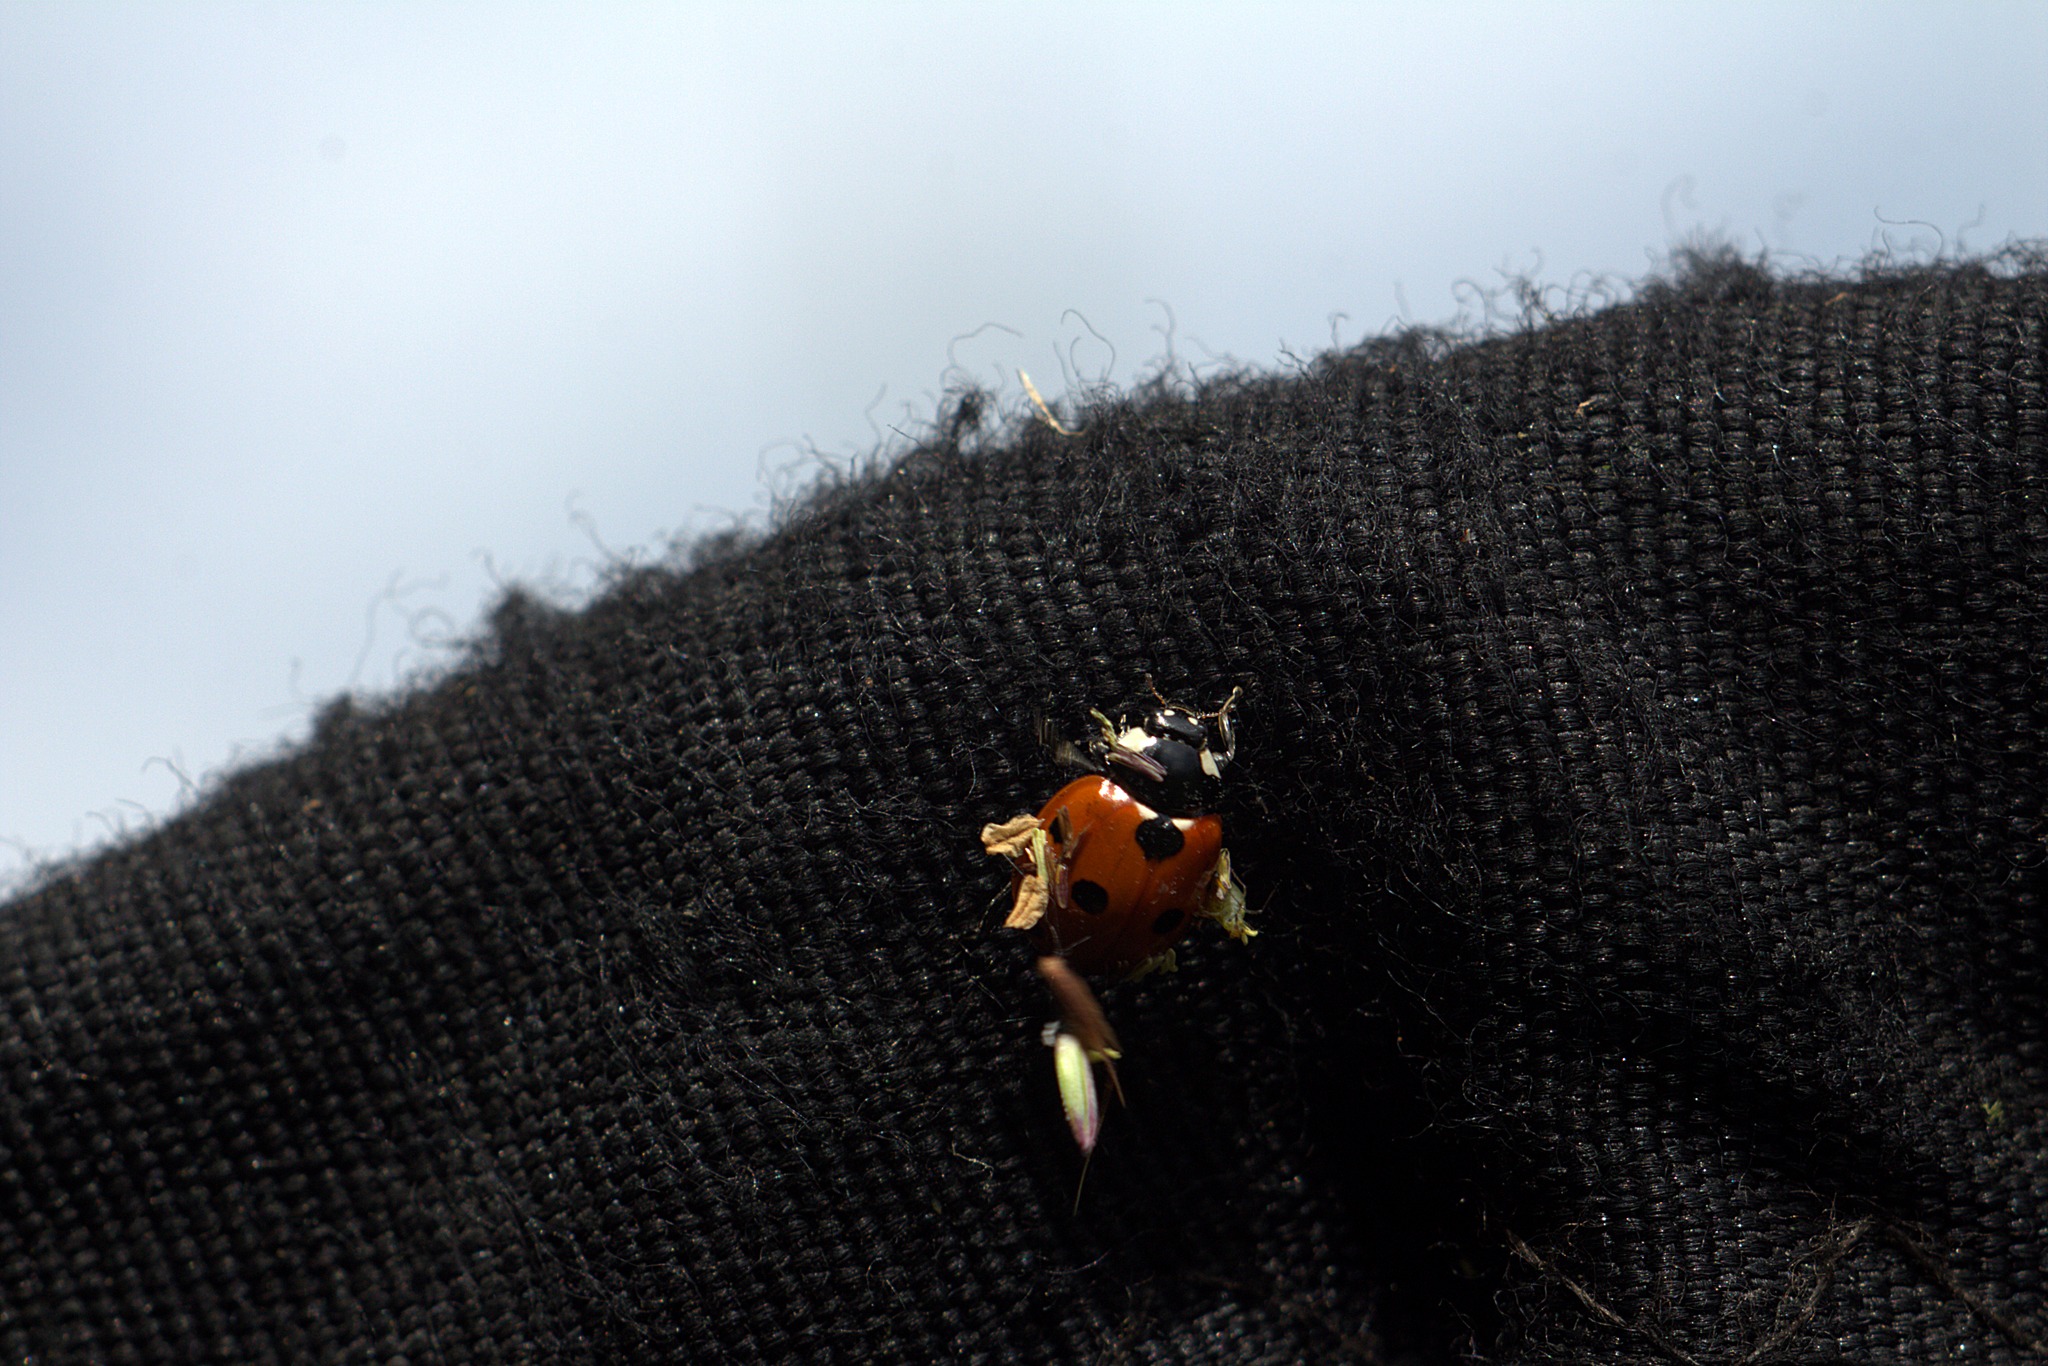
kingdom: Animalia
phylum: Arthropoda
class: Insecta
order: Coleoptera
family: Coccinellidae
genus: Coccinella
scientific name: Coccinella septempunctata
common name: Sevenspotted lady beetle
